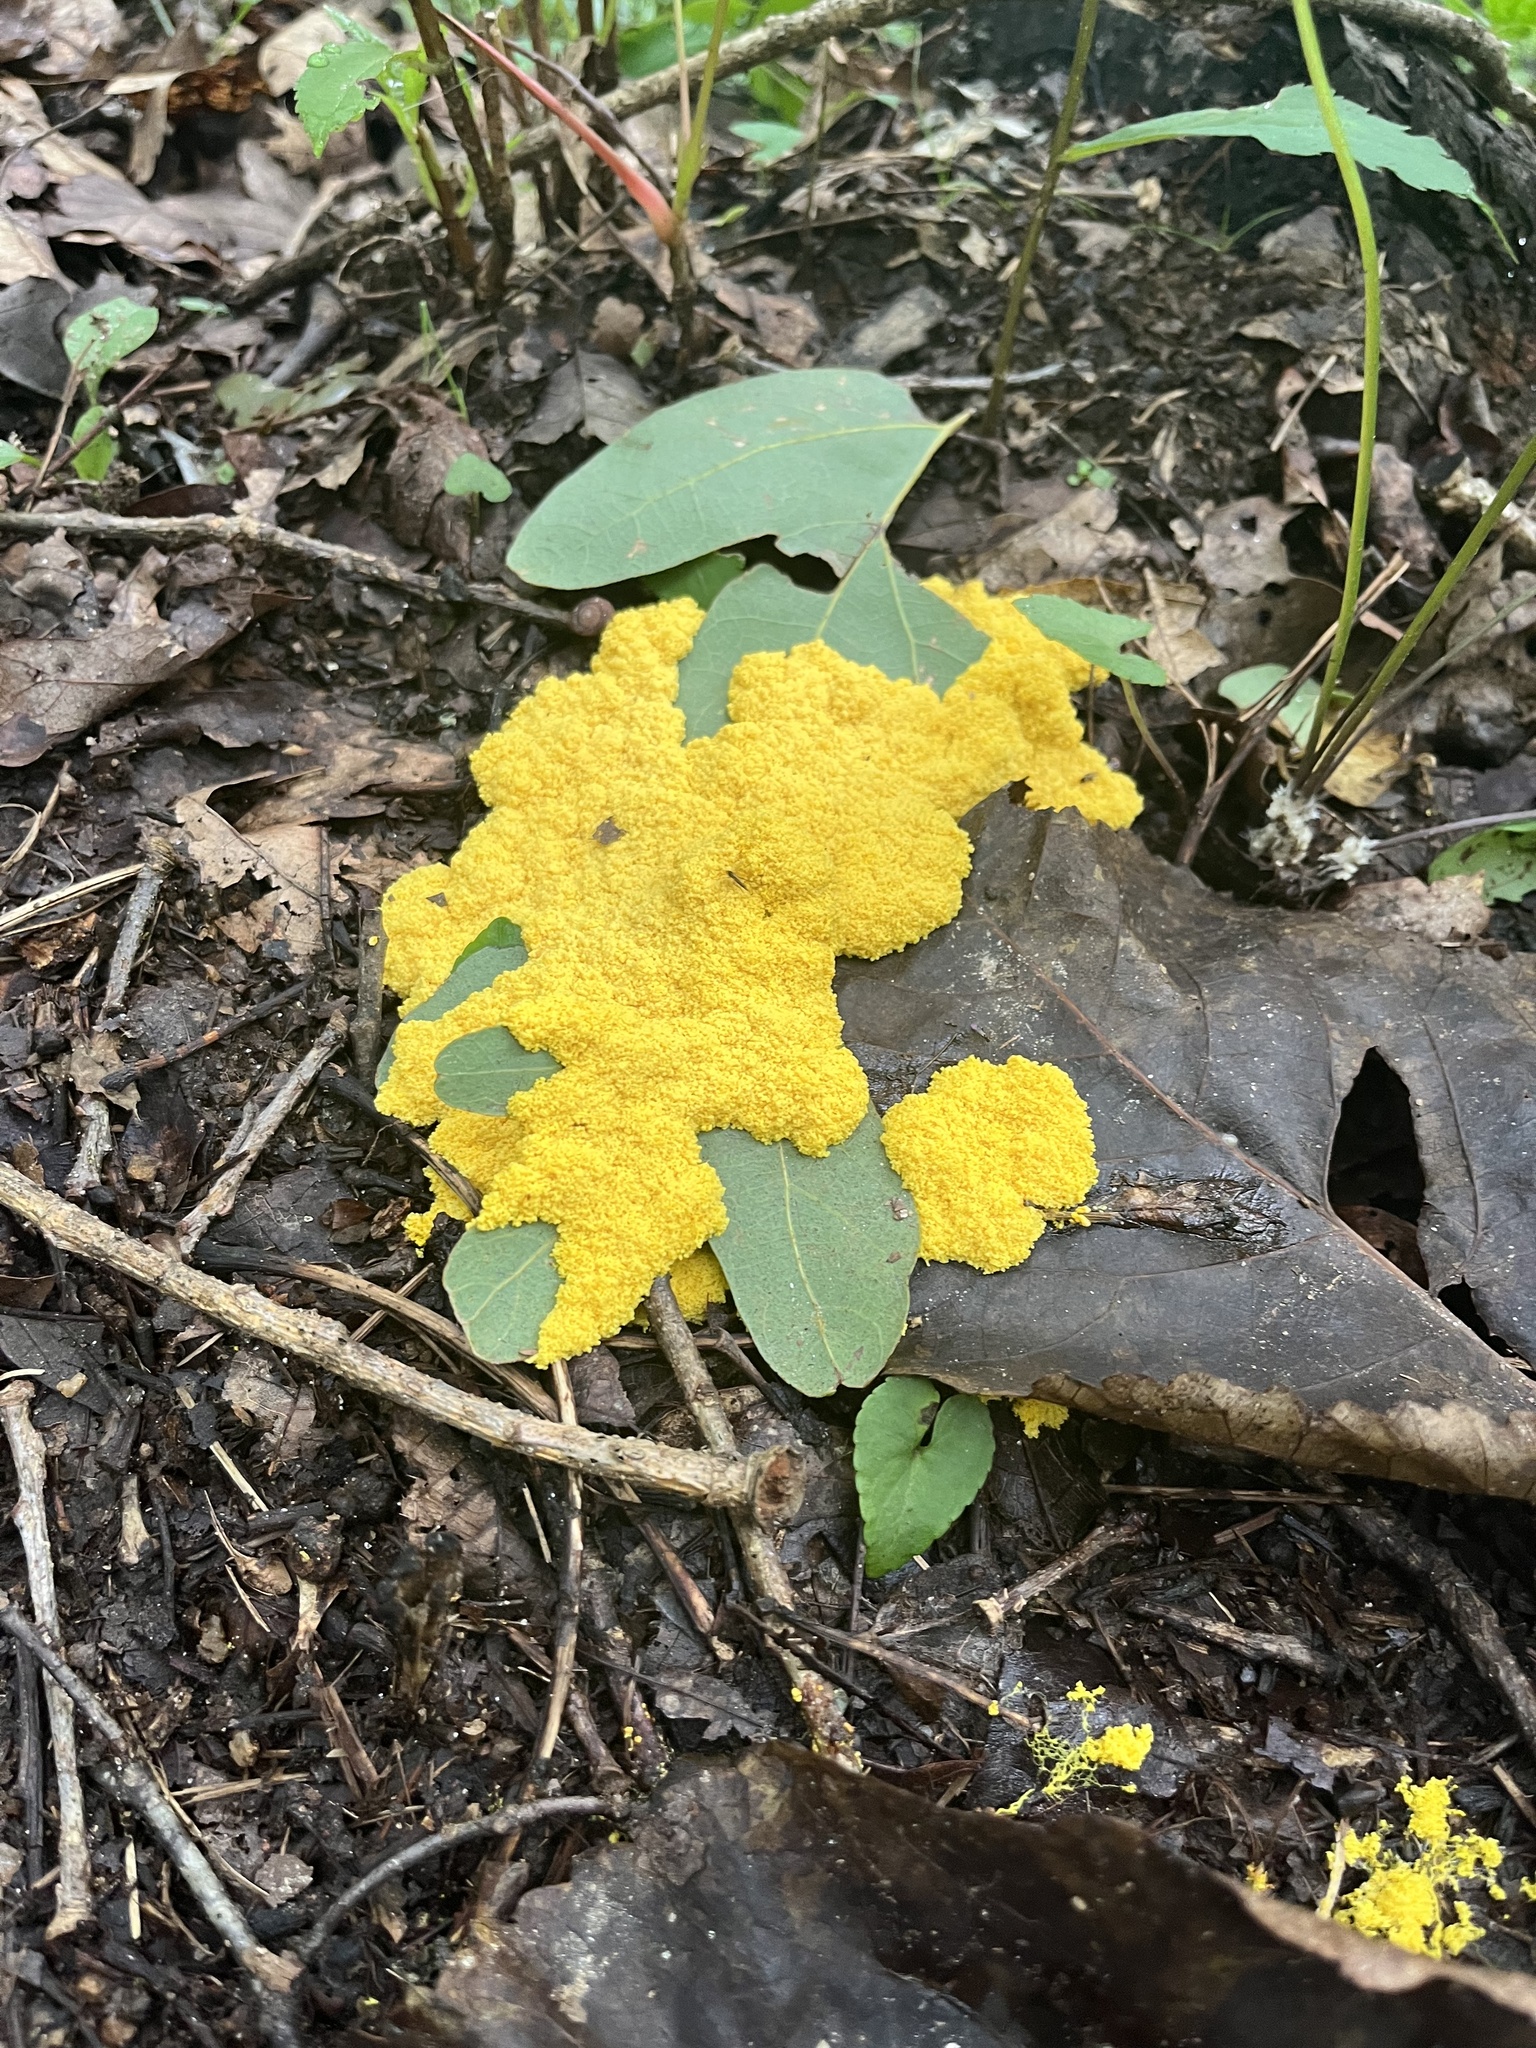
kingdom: Protozoa
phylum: Mycetozoa
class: Myxomycetes
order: Physarales
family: Physaraceae
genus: Fuligo
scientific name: Fuligo septica
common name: Dog vomit slime mold
